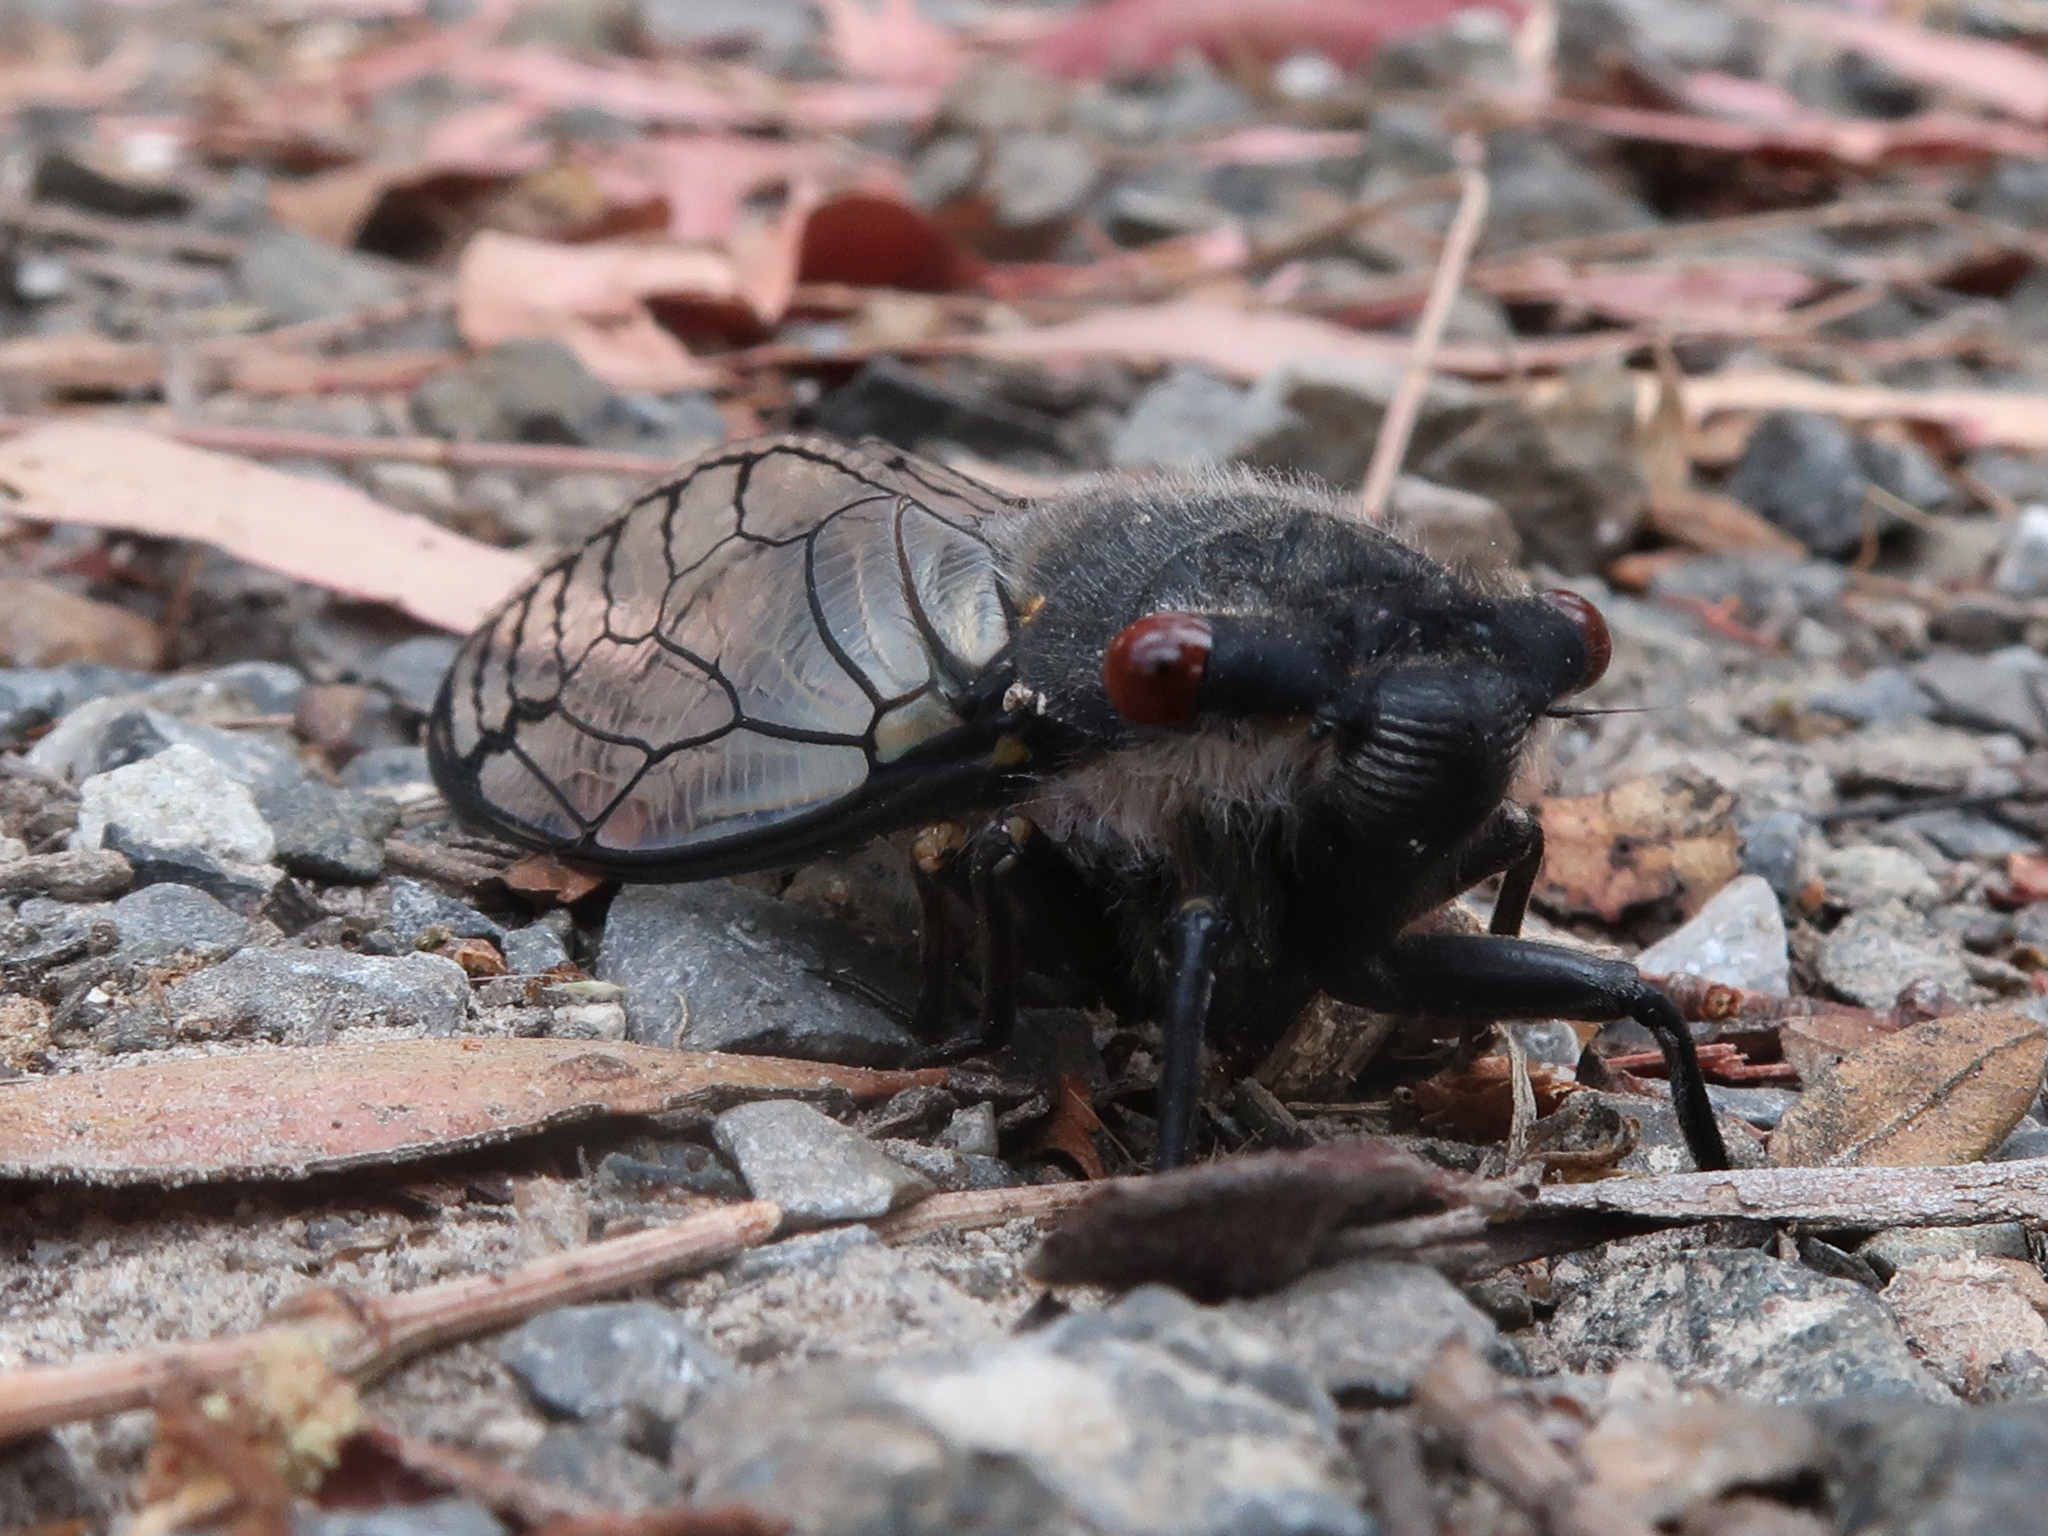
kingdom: Animalia
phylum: Arthropoda
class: Insecta
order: Hemiptera
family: Cicadidae
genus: Psaltoda
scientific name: Psaltoda moerens
